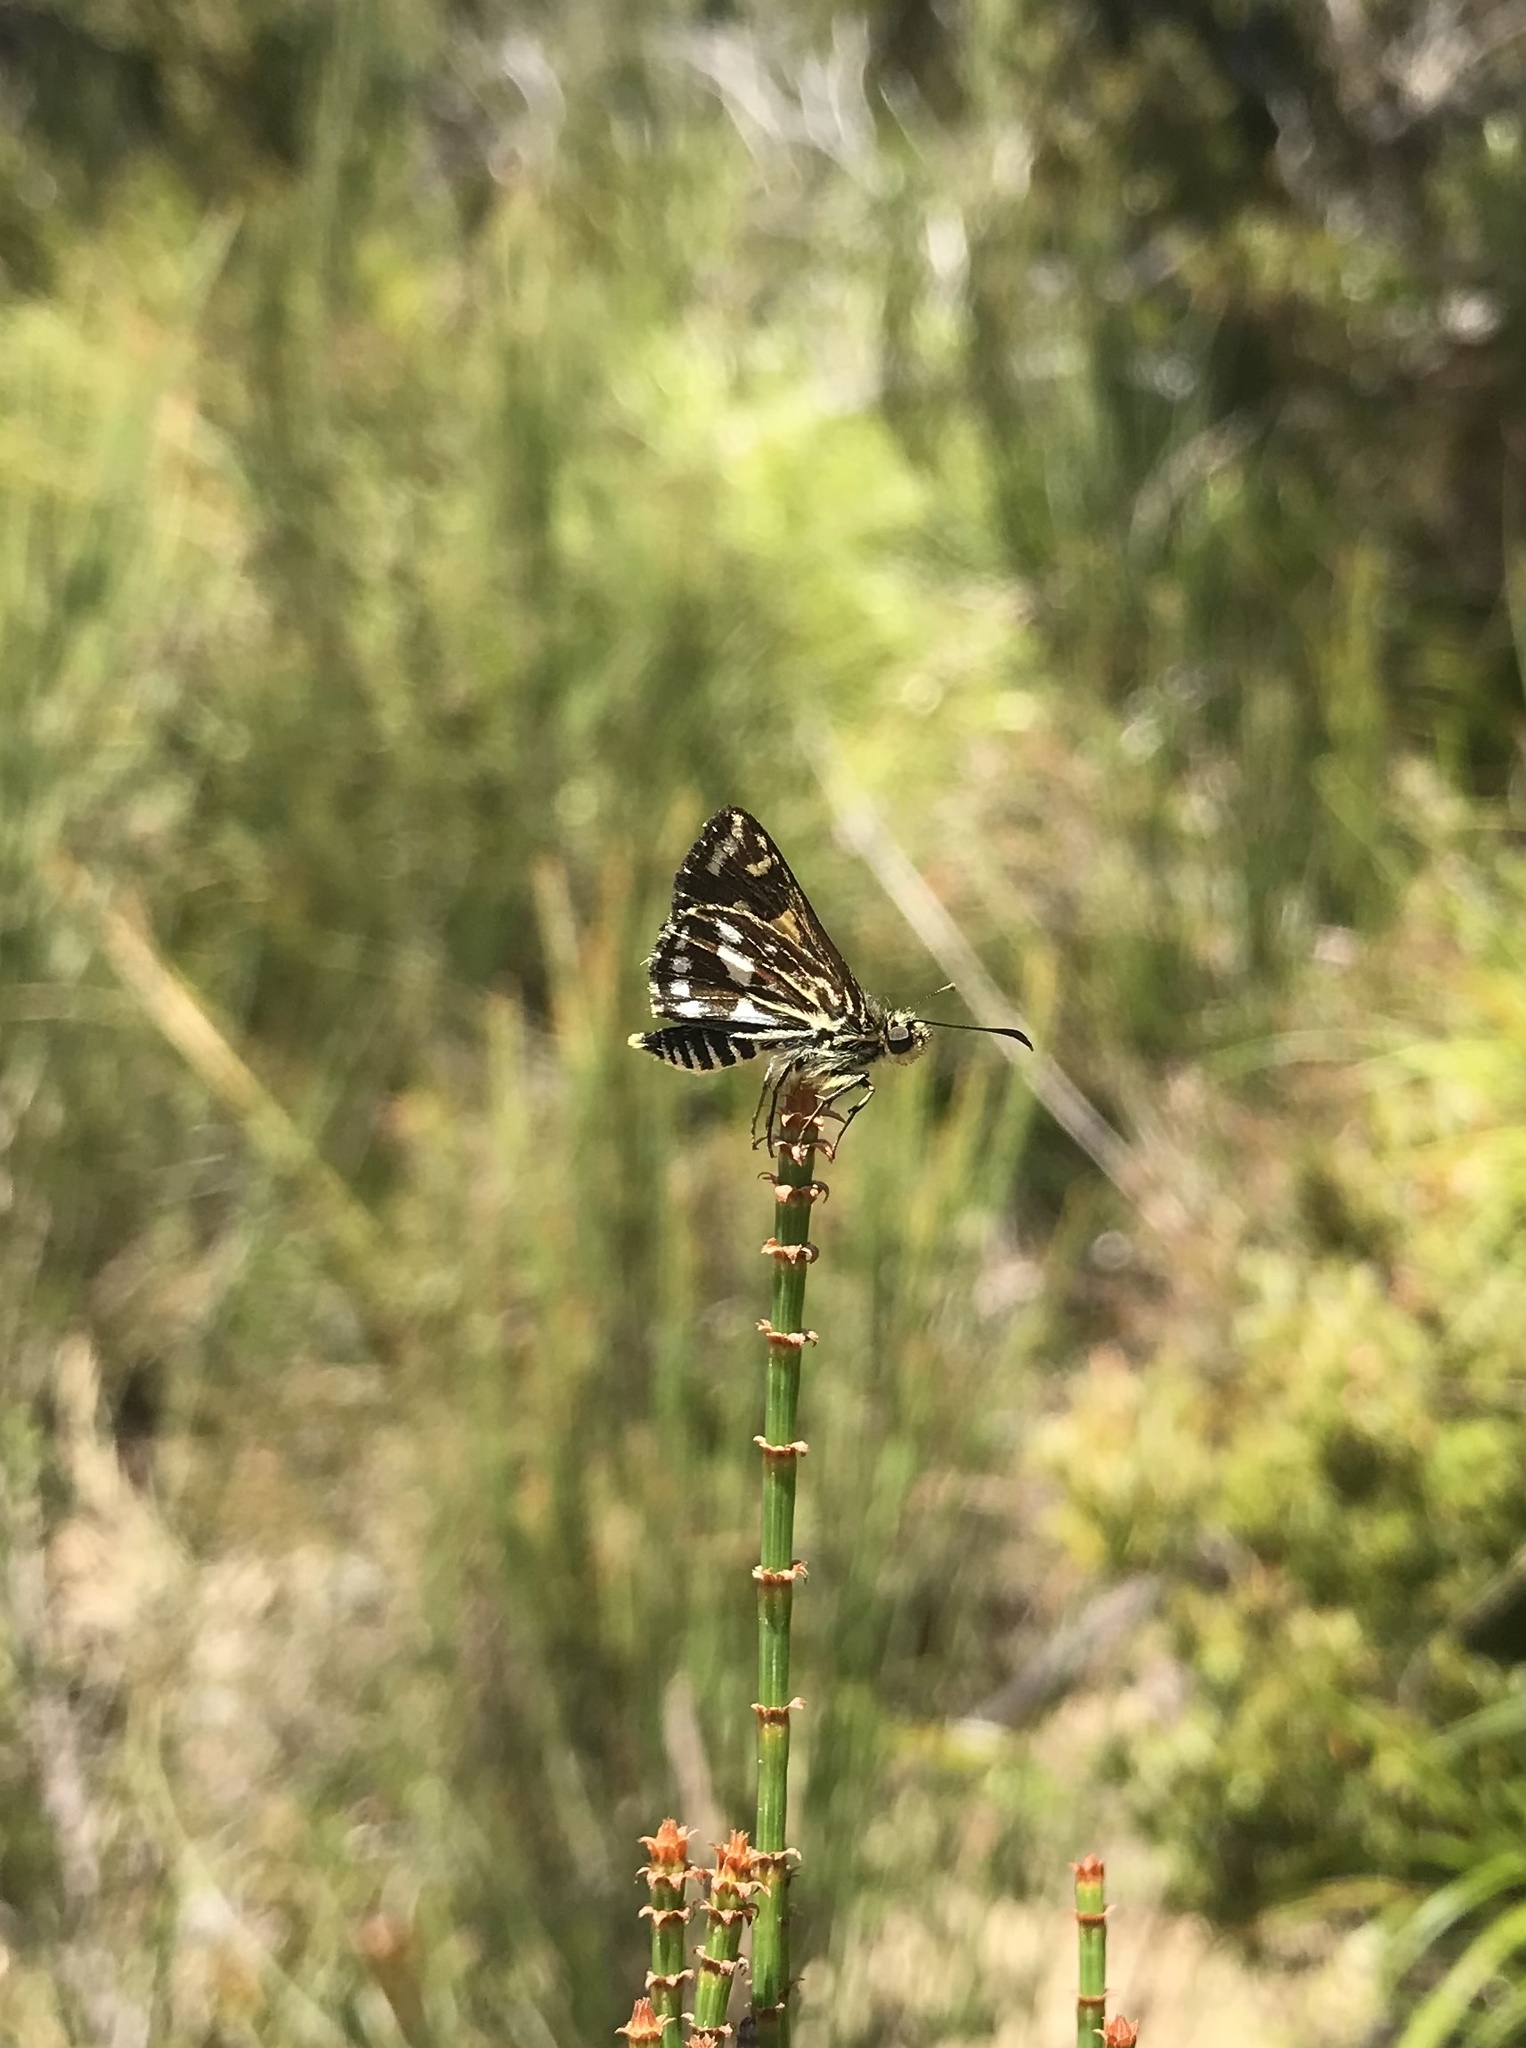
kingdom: Animalia
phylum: Arthropoda
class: Insecta
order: Lepidoptera
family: Hesperiidae
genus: Hesperilla
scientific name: Hesperilla crypsargyra
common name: Silver sedge-skipper
